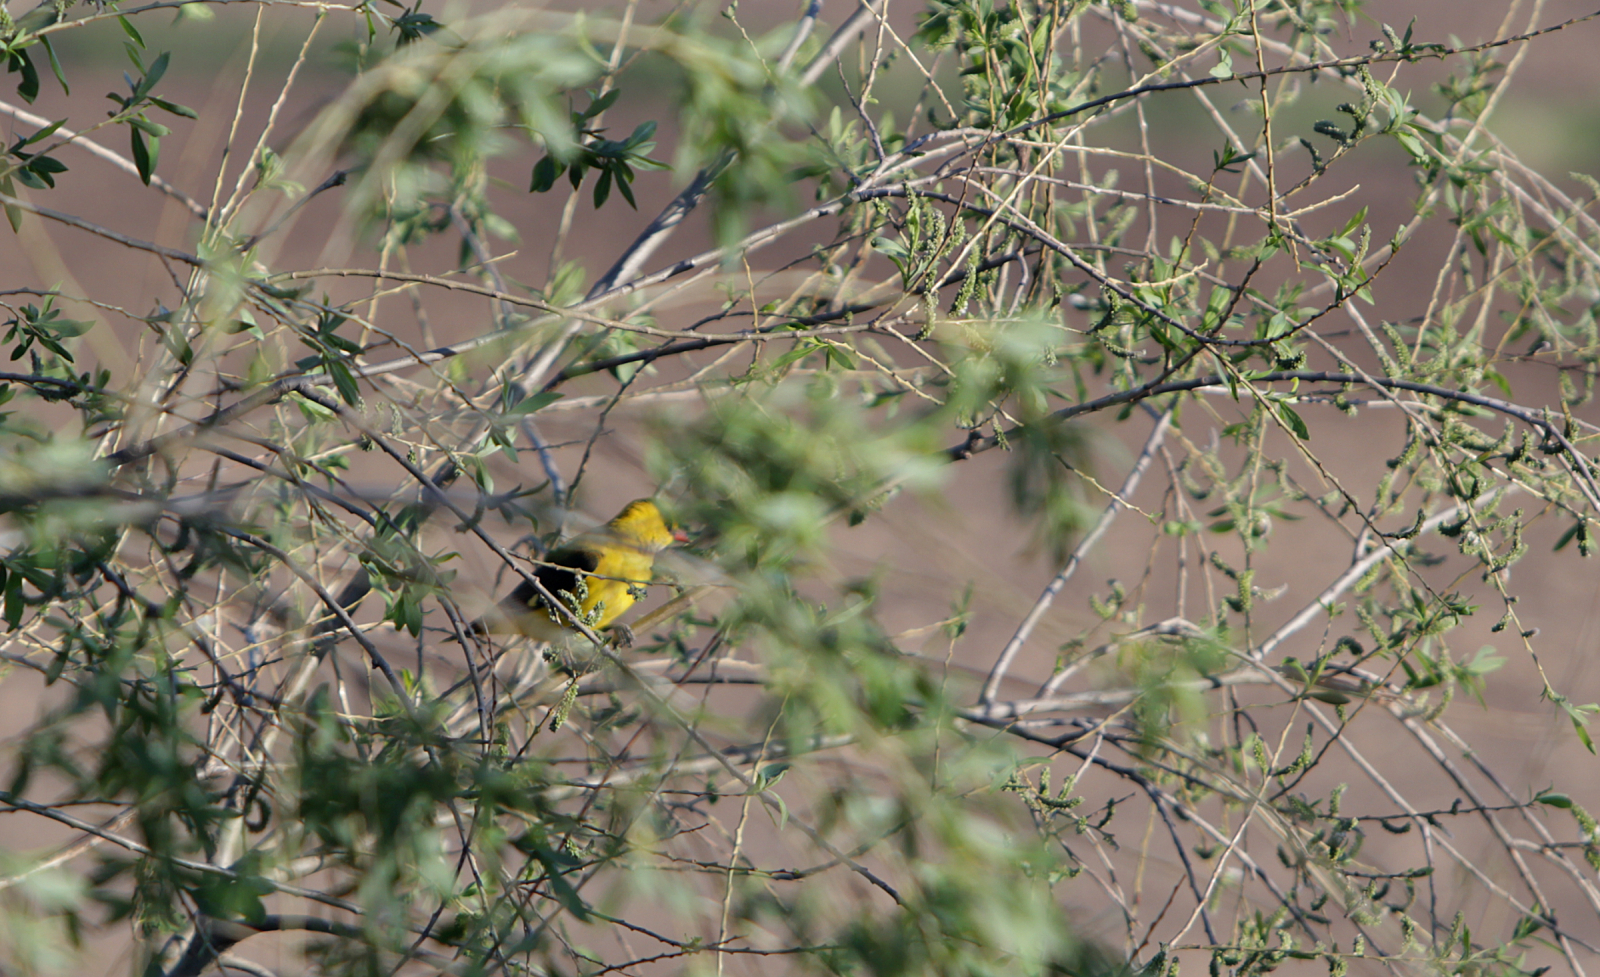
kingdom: Animalia
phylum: Chordata
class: Aves
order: Passeriformes
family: Oriolidae
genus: Oriolus
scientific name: Oriolus oriolus
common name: Eurasian golden oriole
